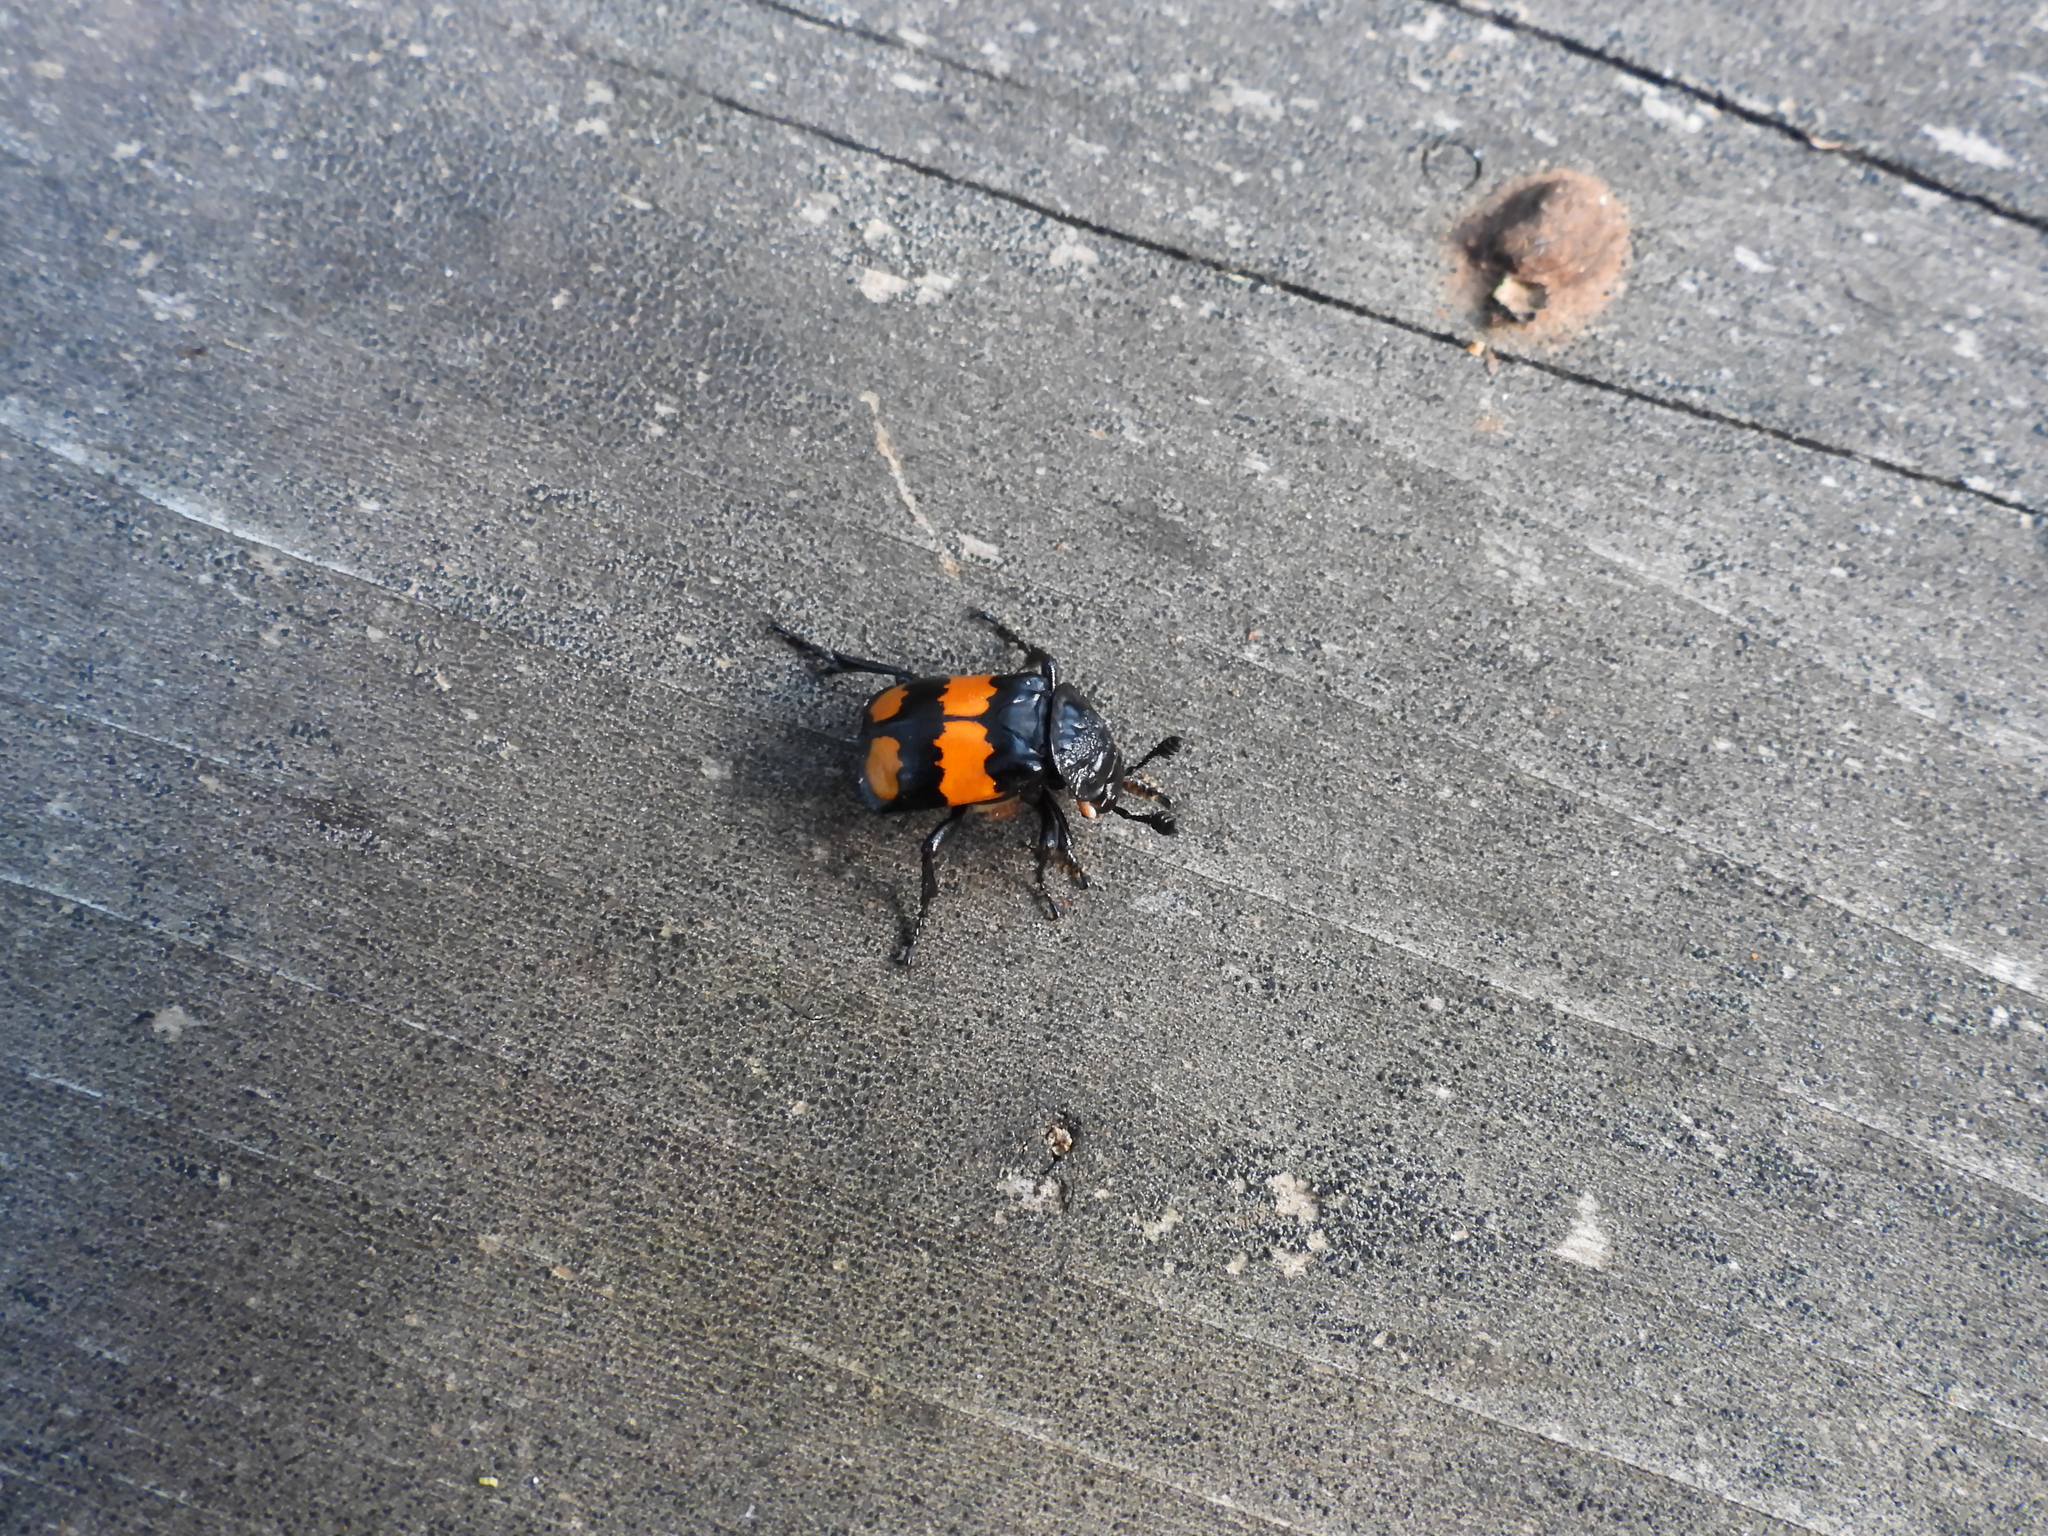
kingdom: Animalia
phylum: Arthropoda
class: Insecta
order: Coleoptera
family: Staphylinidae
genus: Nicrophorus
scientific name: Nicrophorus defodiens
